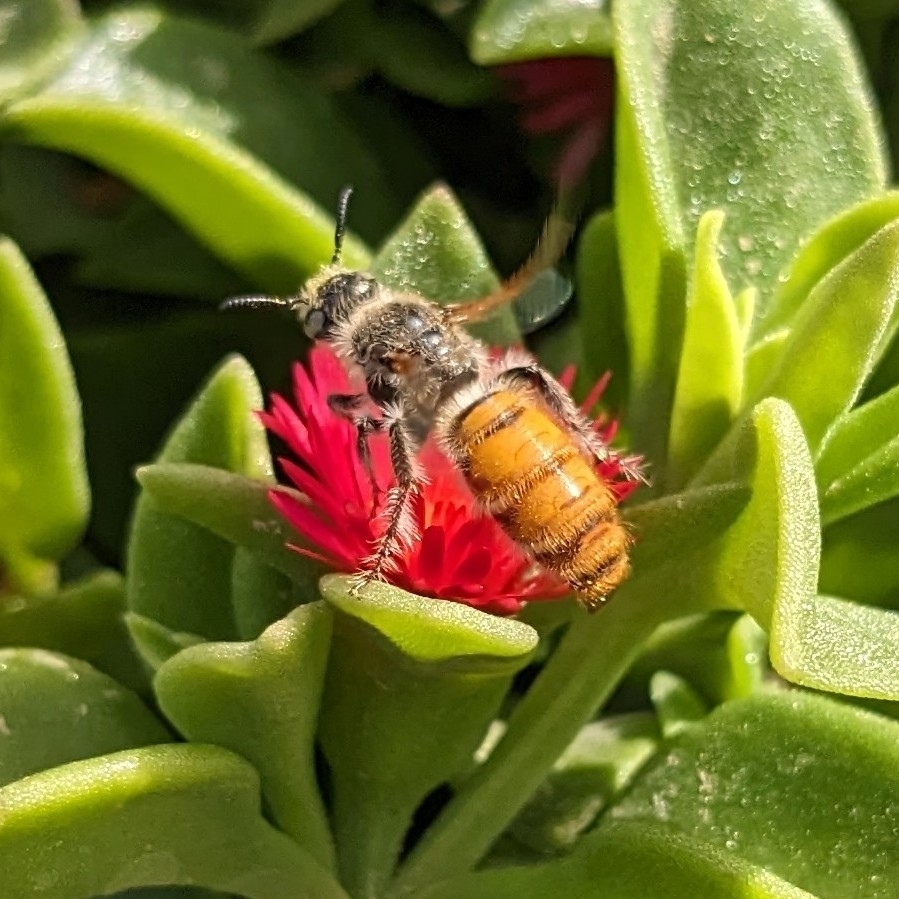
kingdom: Animalia
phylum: Arthropoda
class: Insecta
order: Hymenoptera
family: Scoliidae
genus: Micromeriella
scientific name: Micromeriella aureola
